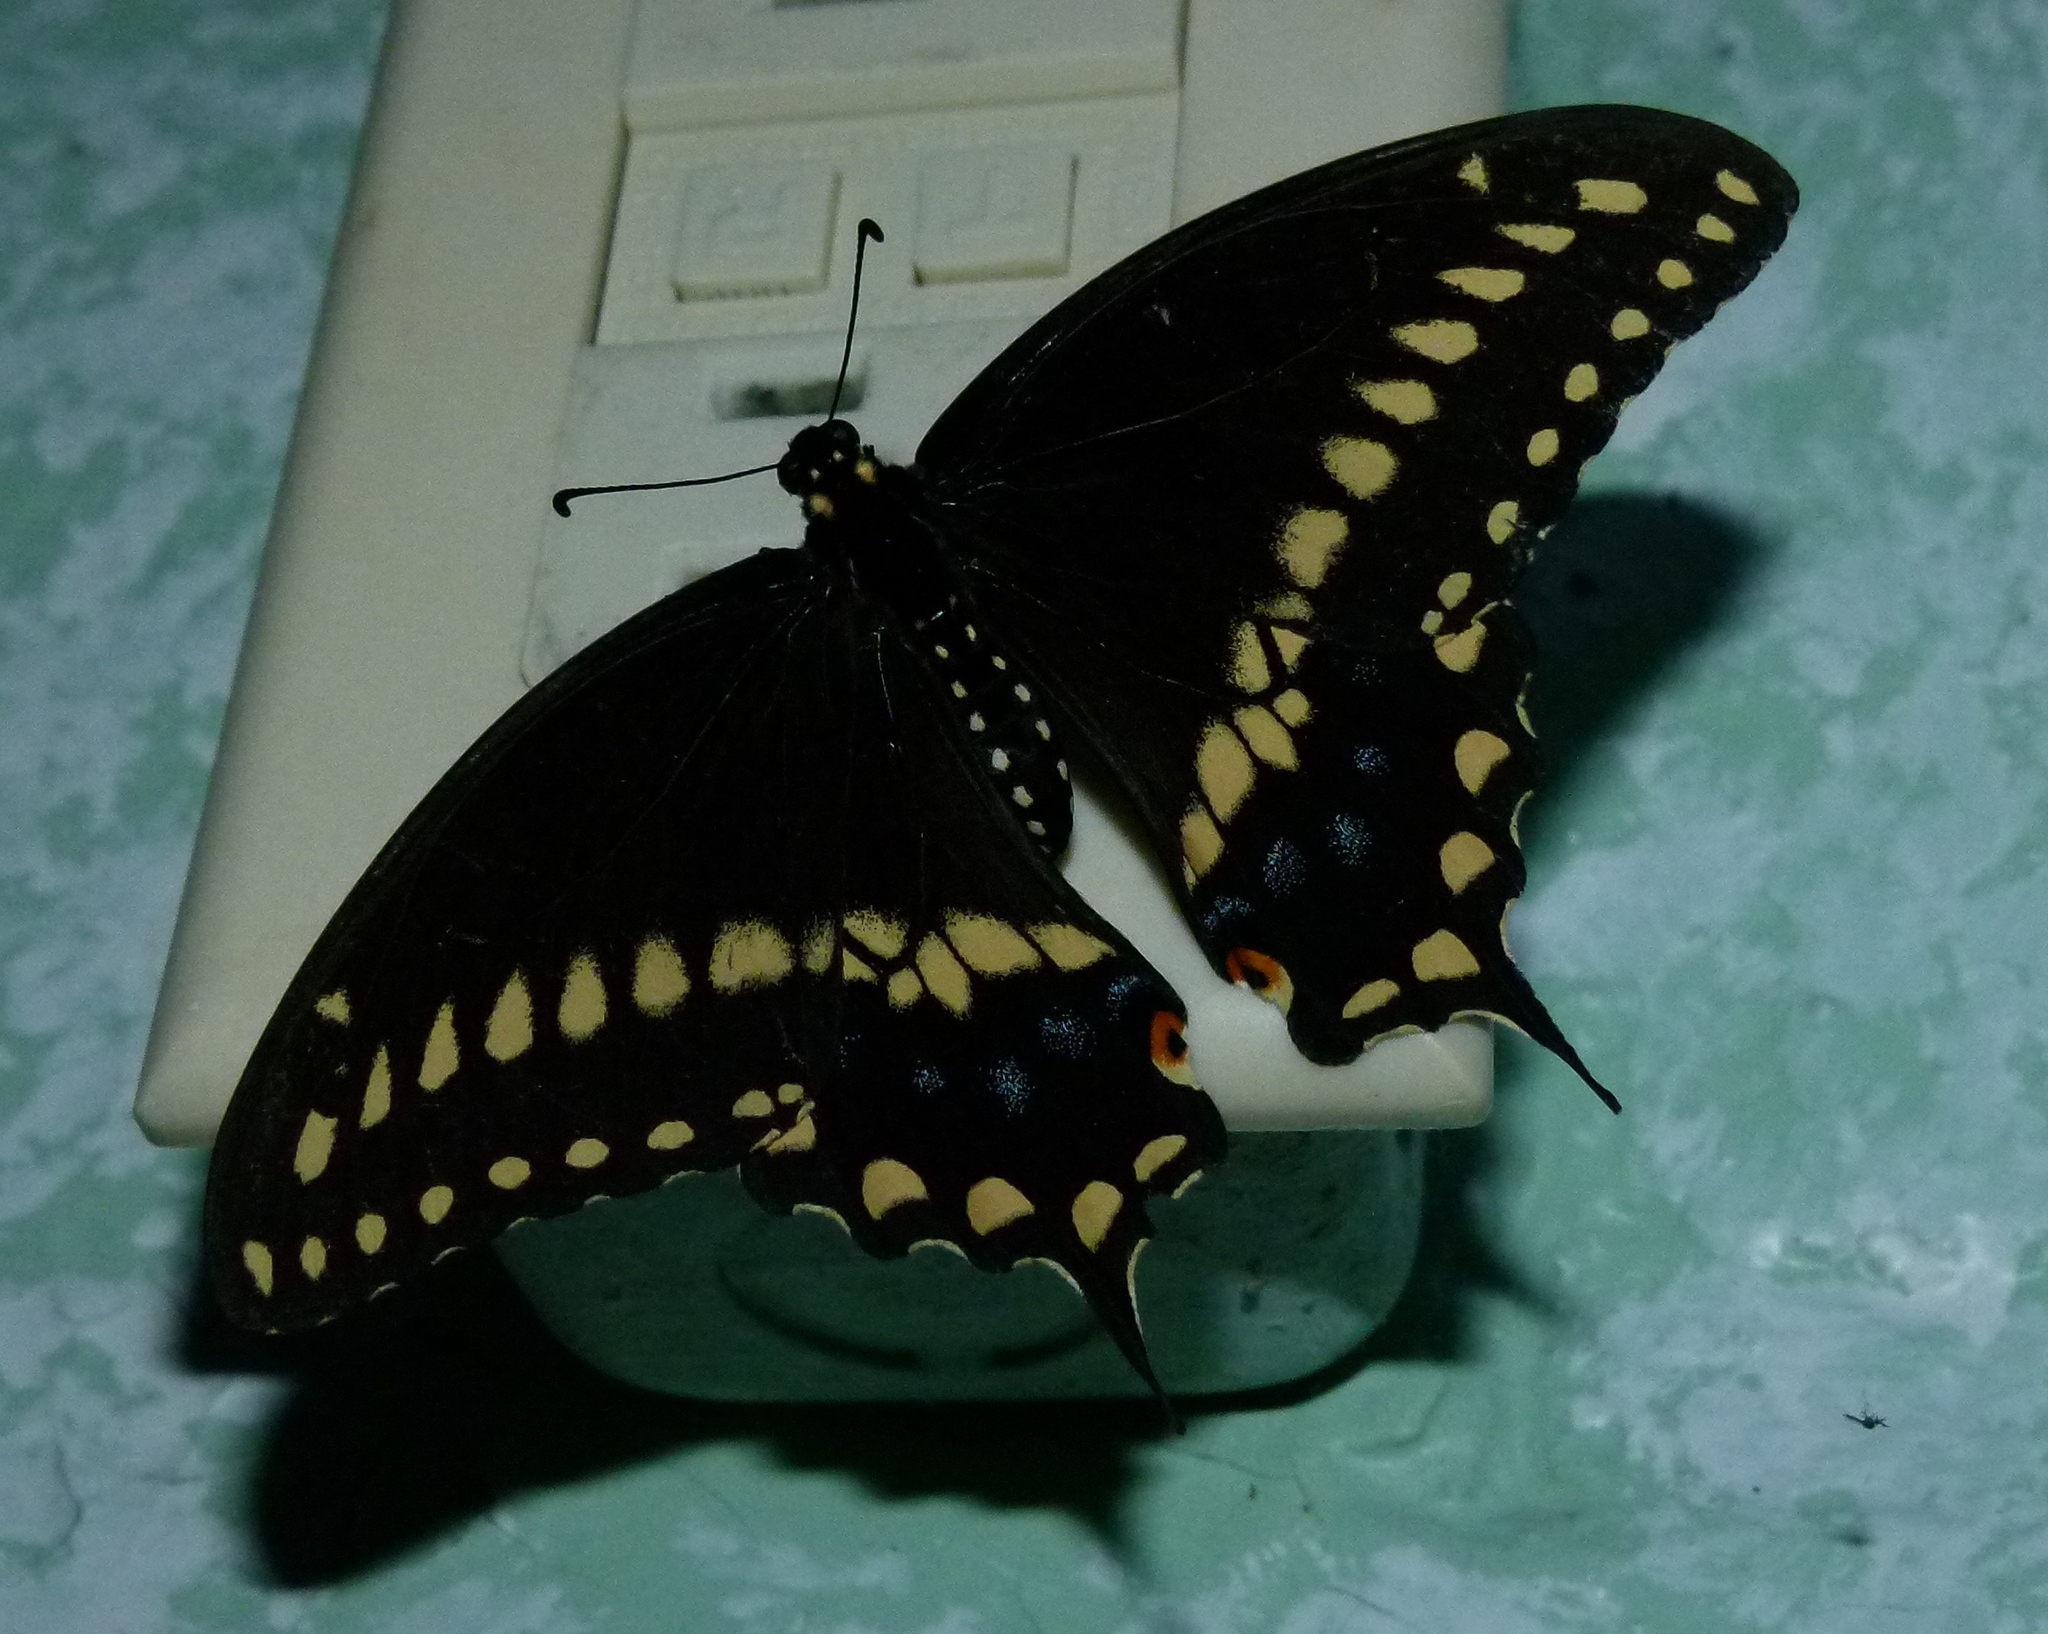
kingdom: Animalia
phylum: Arthropoda
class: Insecta
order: Lepidoptera
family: Papilionidae
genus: Papilio
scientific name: Papilio polyxenes
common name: Black swallowtail
